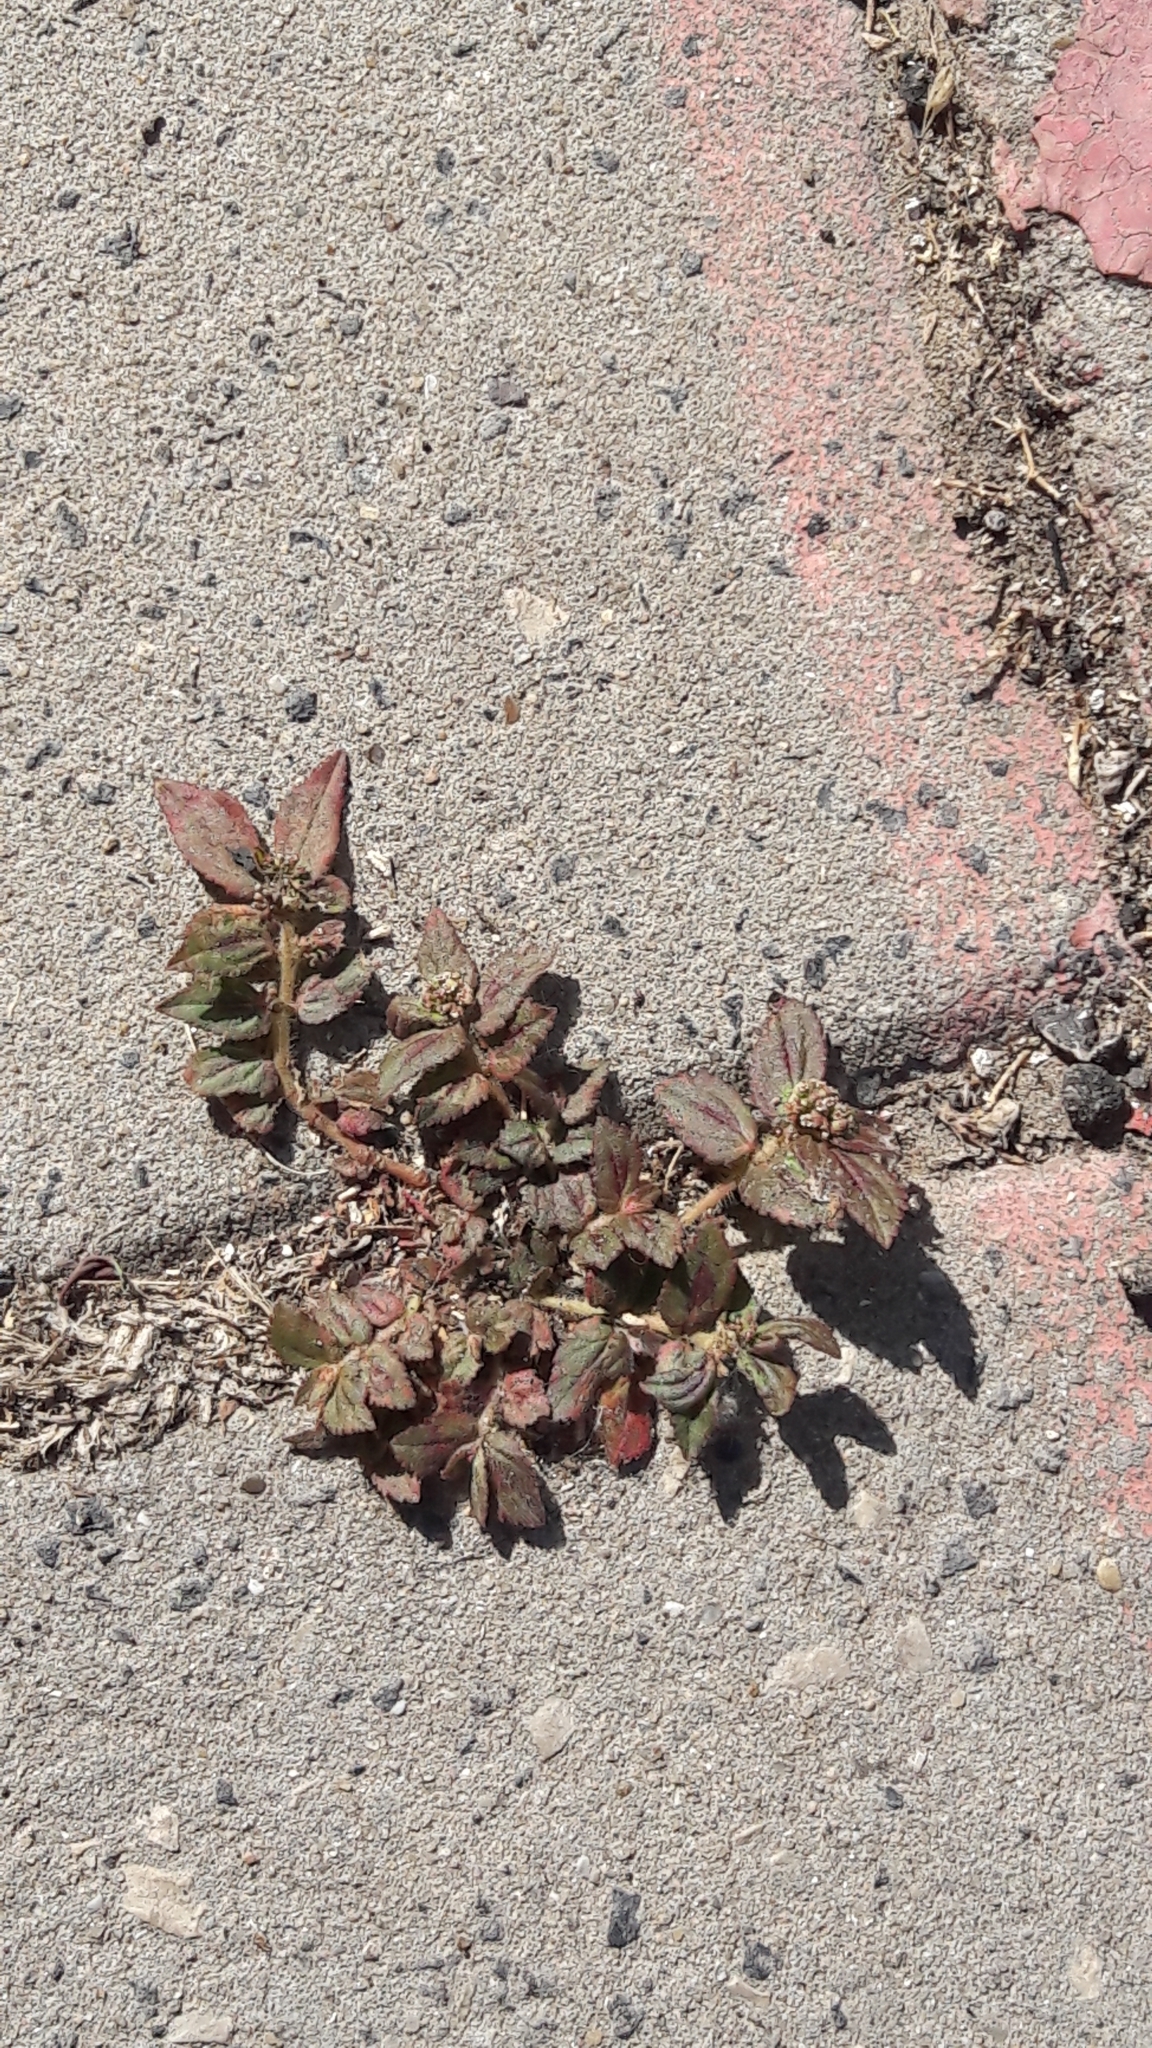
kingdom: Plantae
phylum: Tracheophyta
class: Magnoliopsida
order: Malpighiales
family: Euphorbiaceae
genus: Euphorbia
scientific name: Euphorbia hirta
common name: Pillpod sandmat
